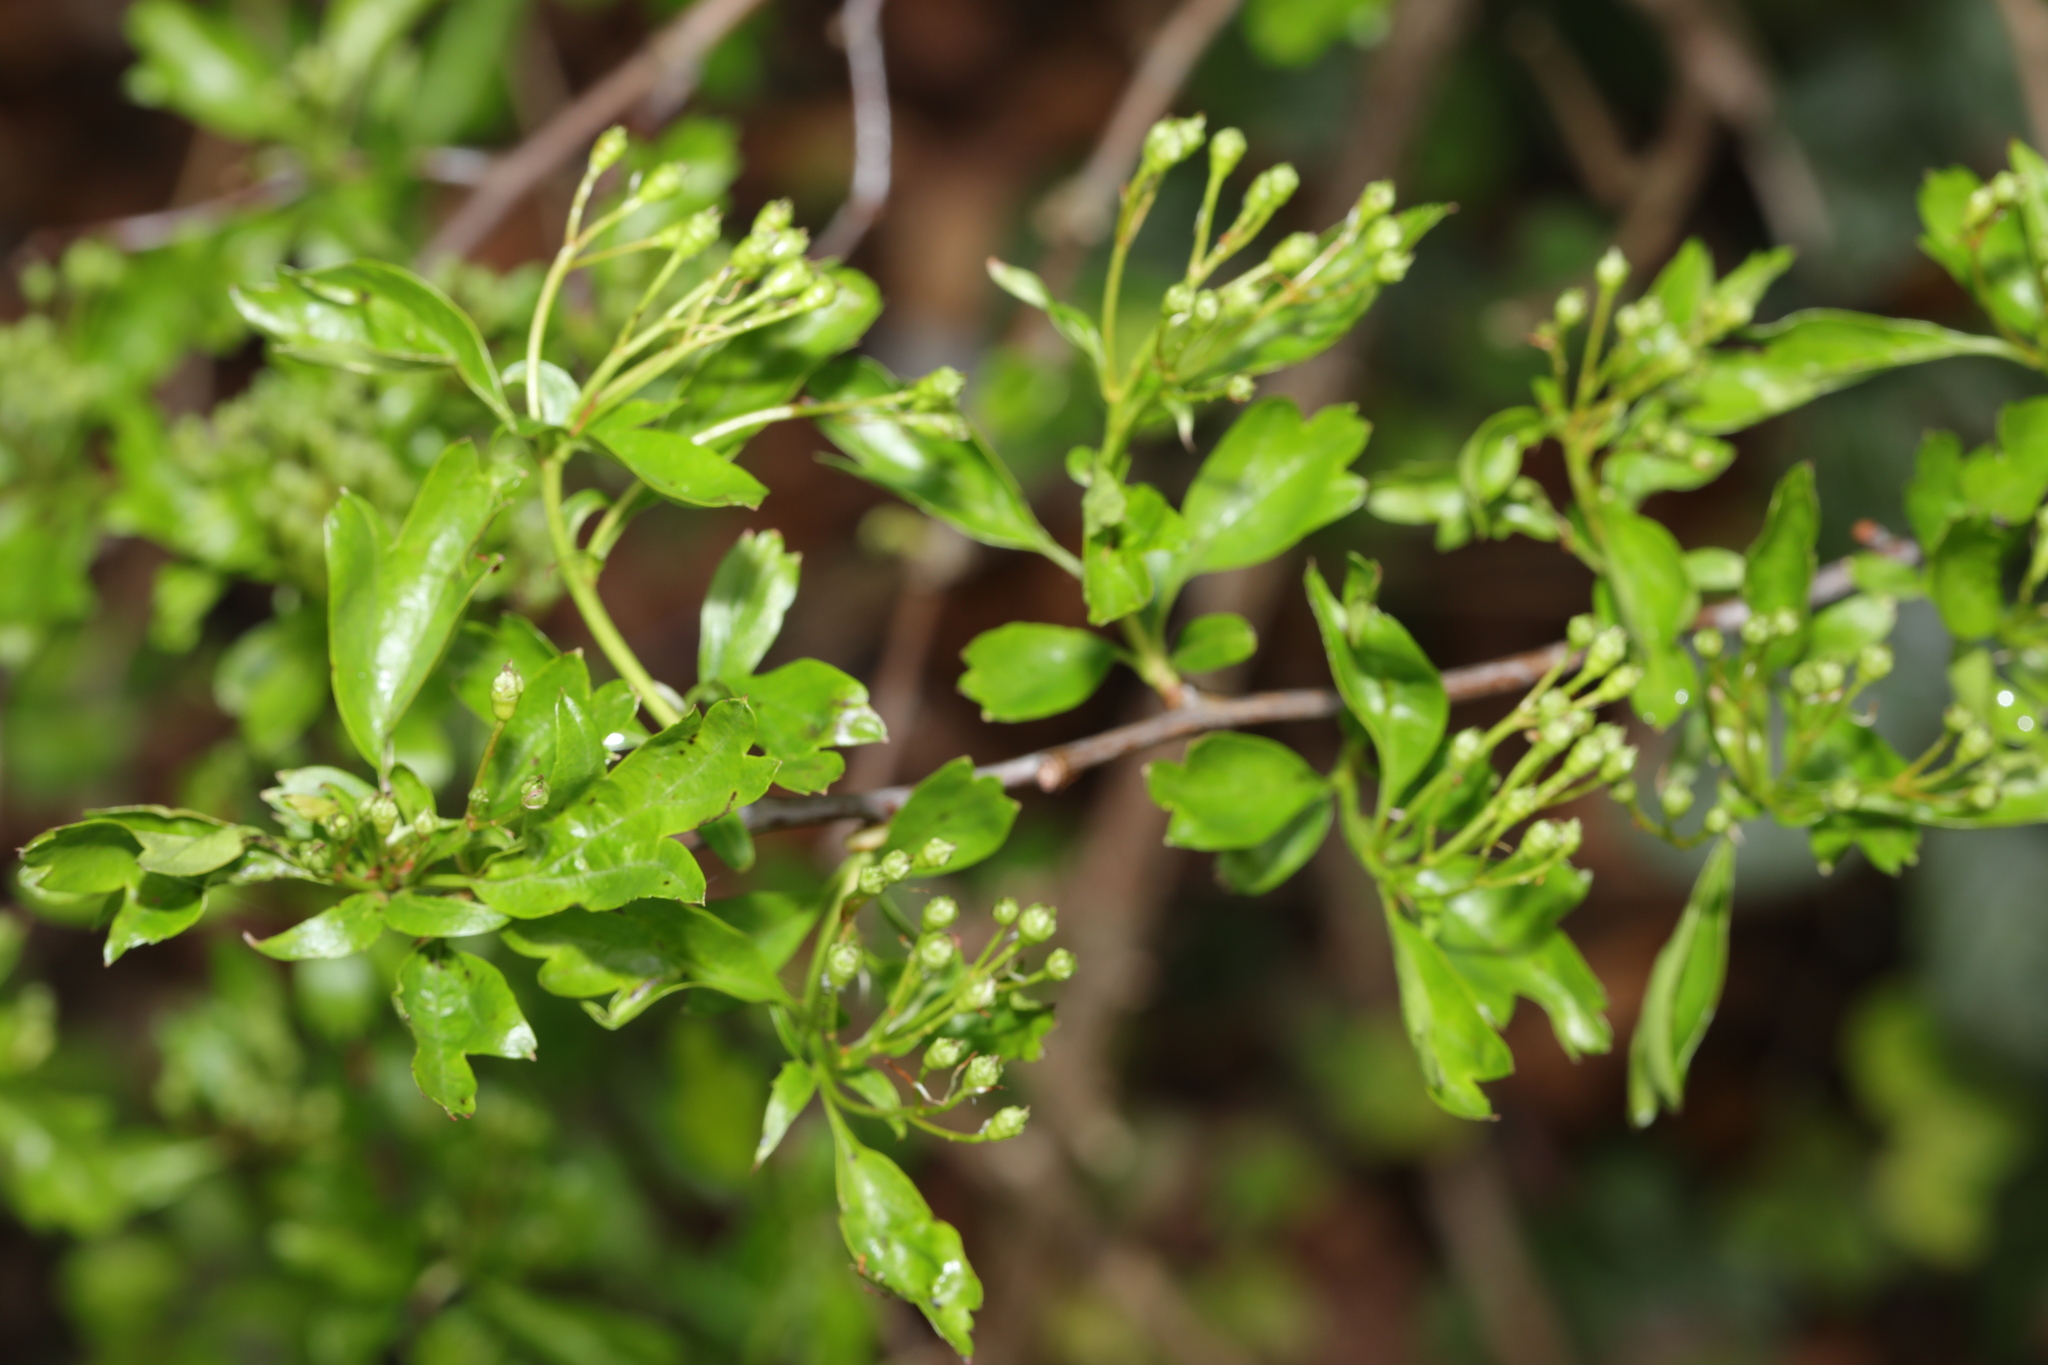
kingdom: Plantae
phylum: Tracheophyta
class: Magnoliopsida
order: Rosales
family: Rosaceae
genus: Crataegus
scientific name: Crataegus monogyna
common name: Hawthorn
